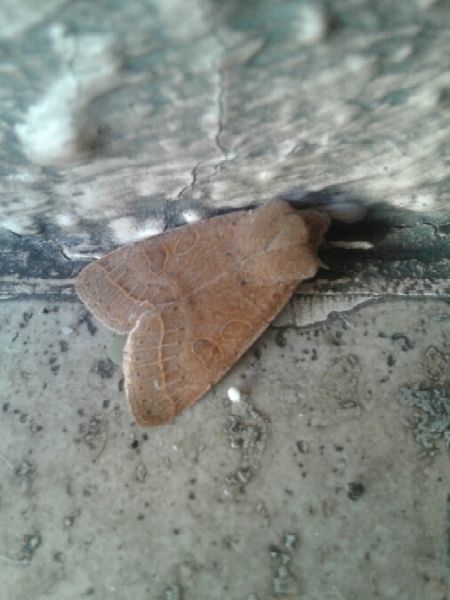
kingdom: Animalia
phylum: Arthropoda
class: Insecta
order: Lepidoptera
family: Noctuidae
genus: Orthosia
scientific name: Orthosia cerasi
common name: Common quaker
